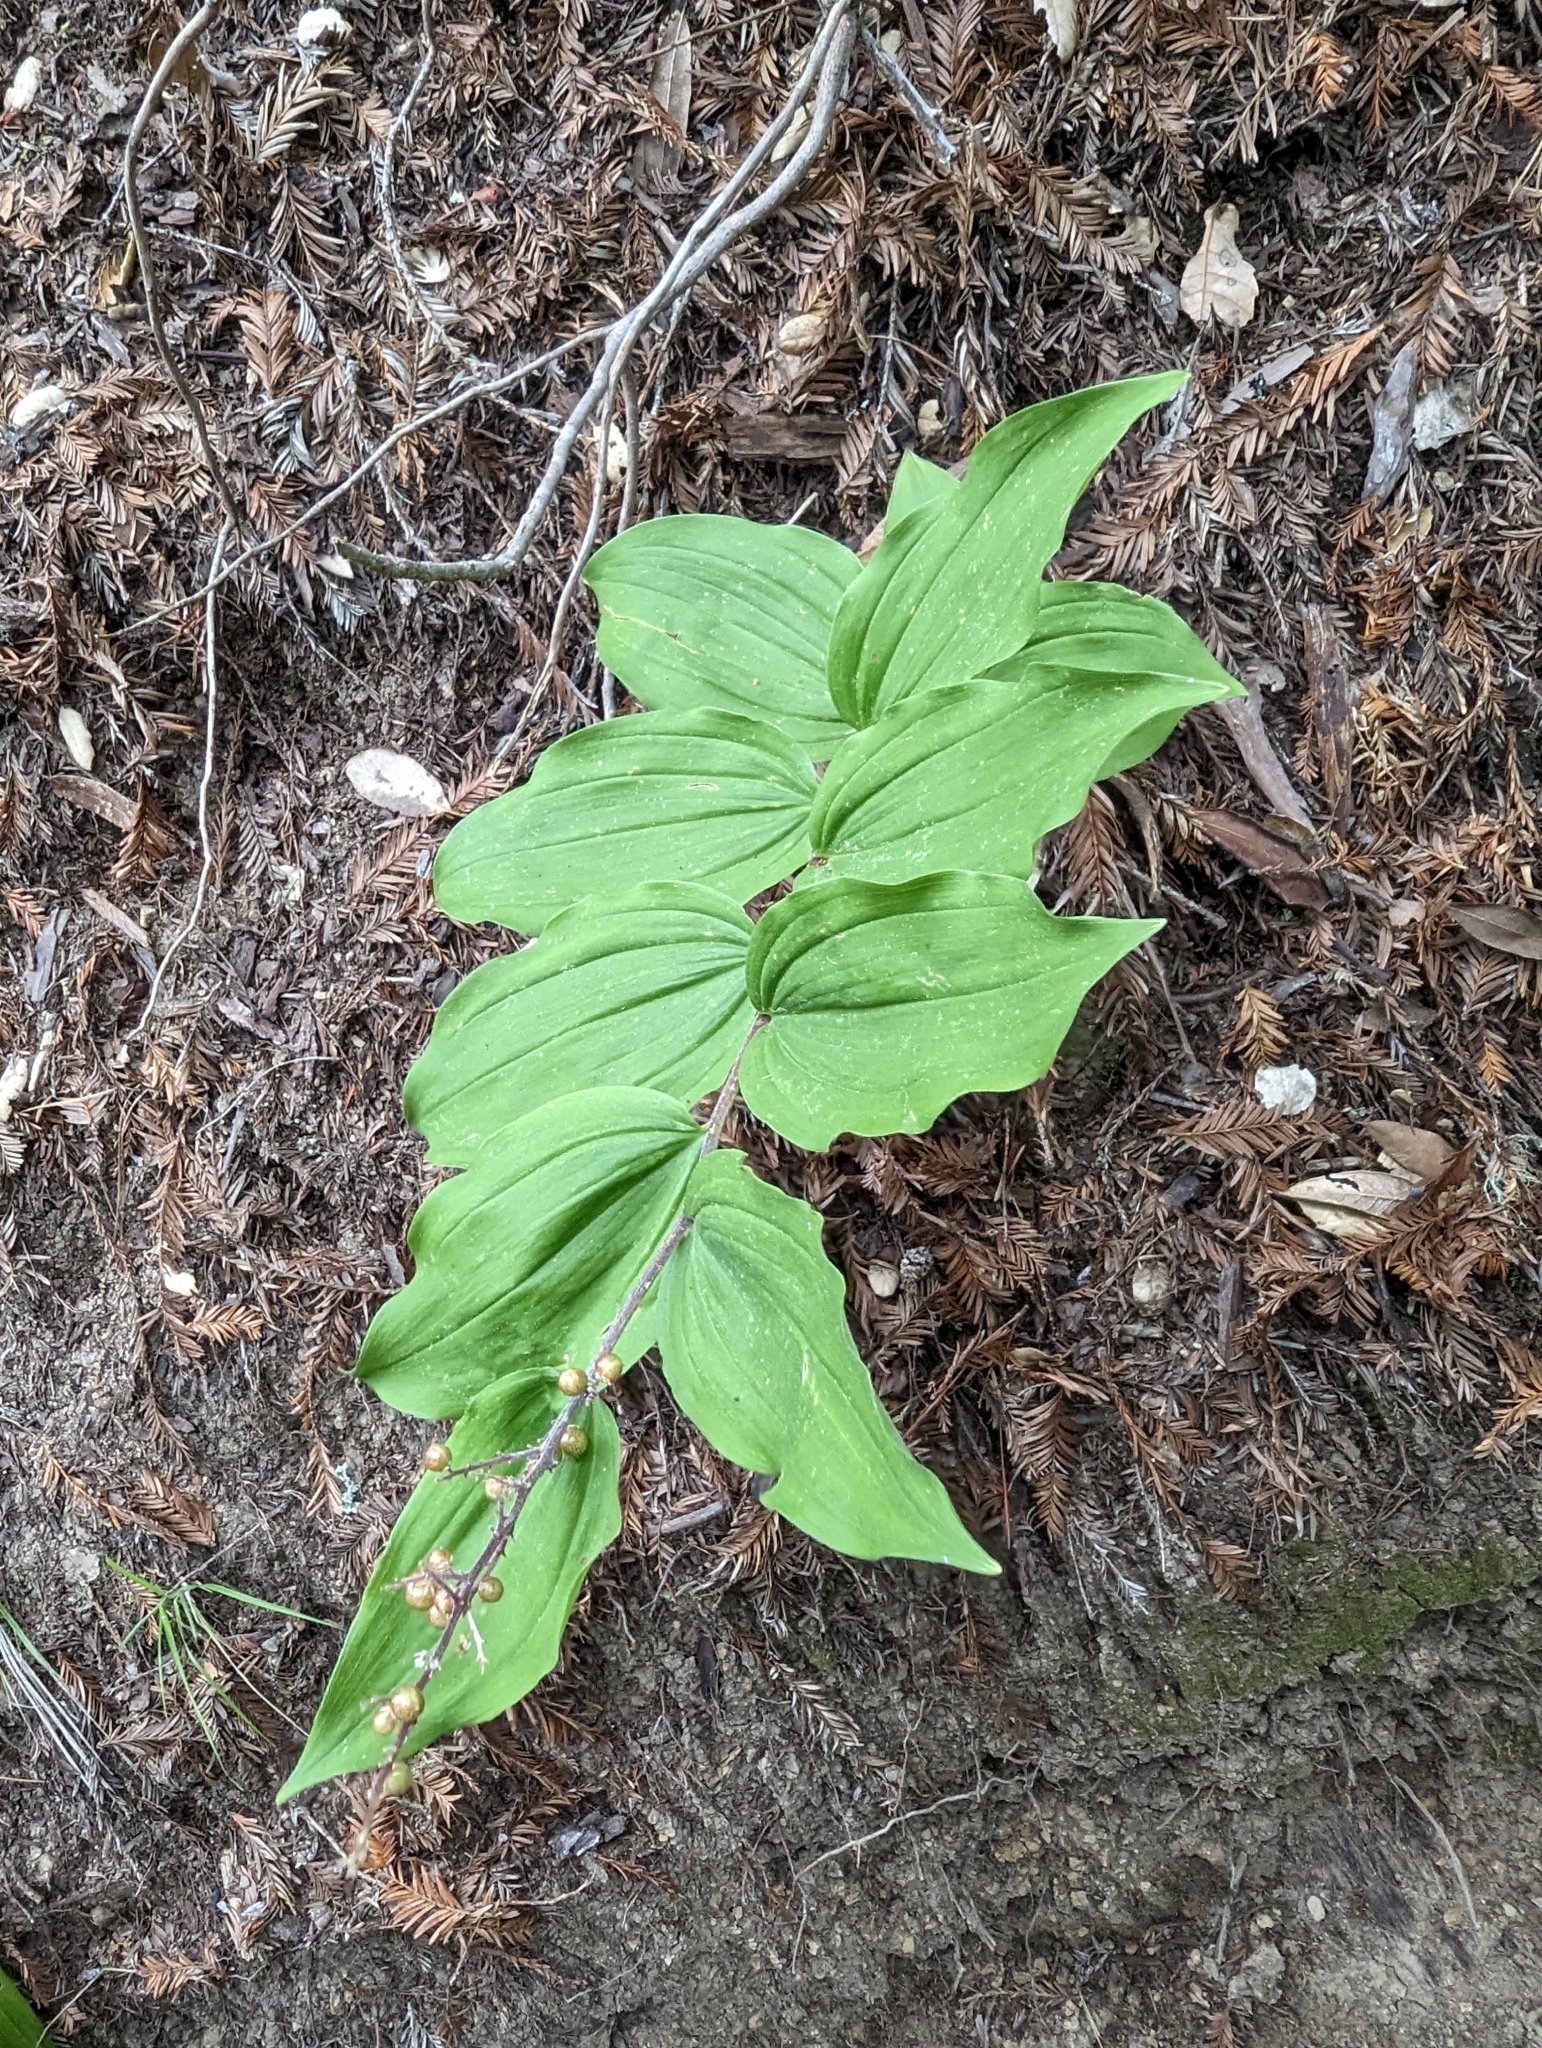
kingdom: Plantae
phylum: Tracheophyta
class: Liliopsida
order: Asparagales
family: Asparagaceae
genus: Maianthemum
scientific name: Maianthemum racemosum
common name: False spikenard
